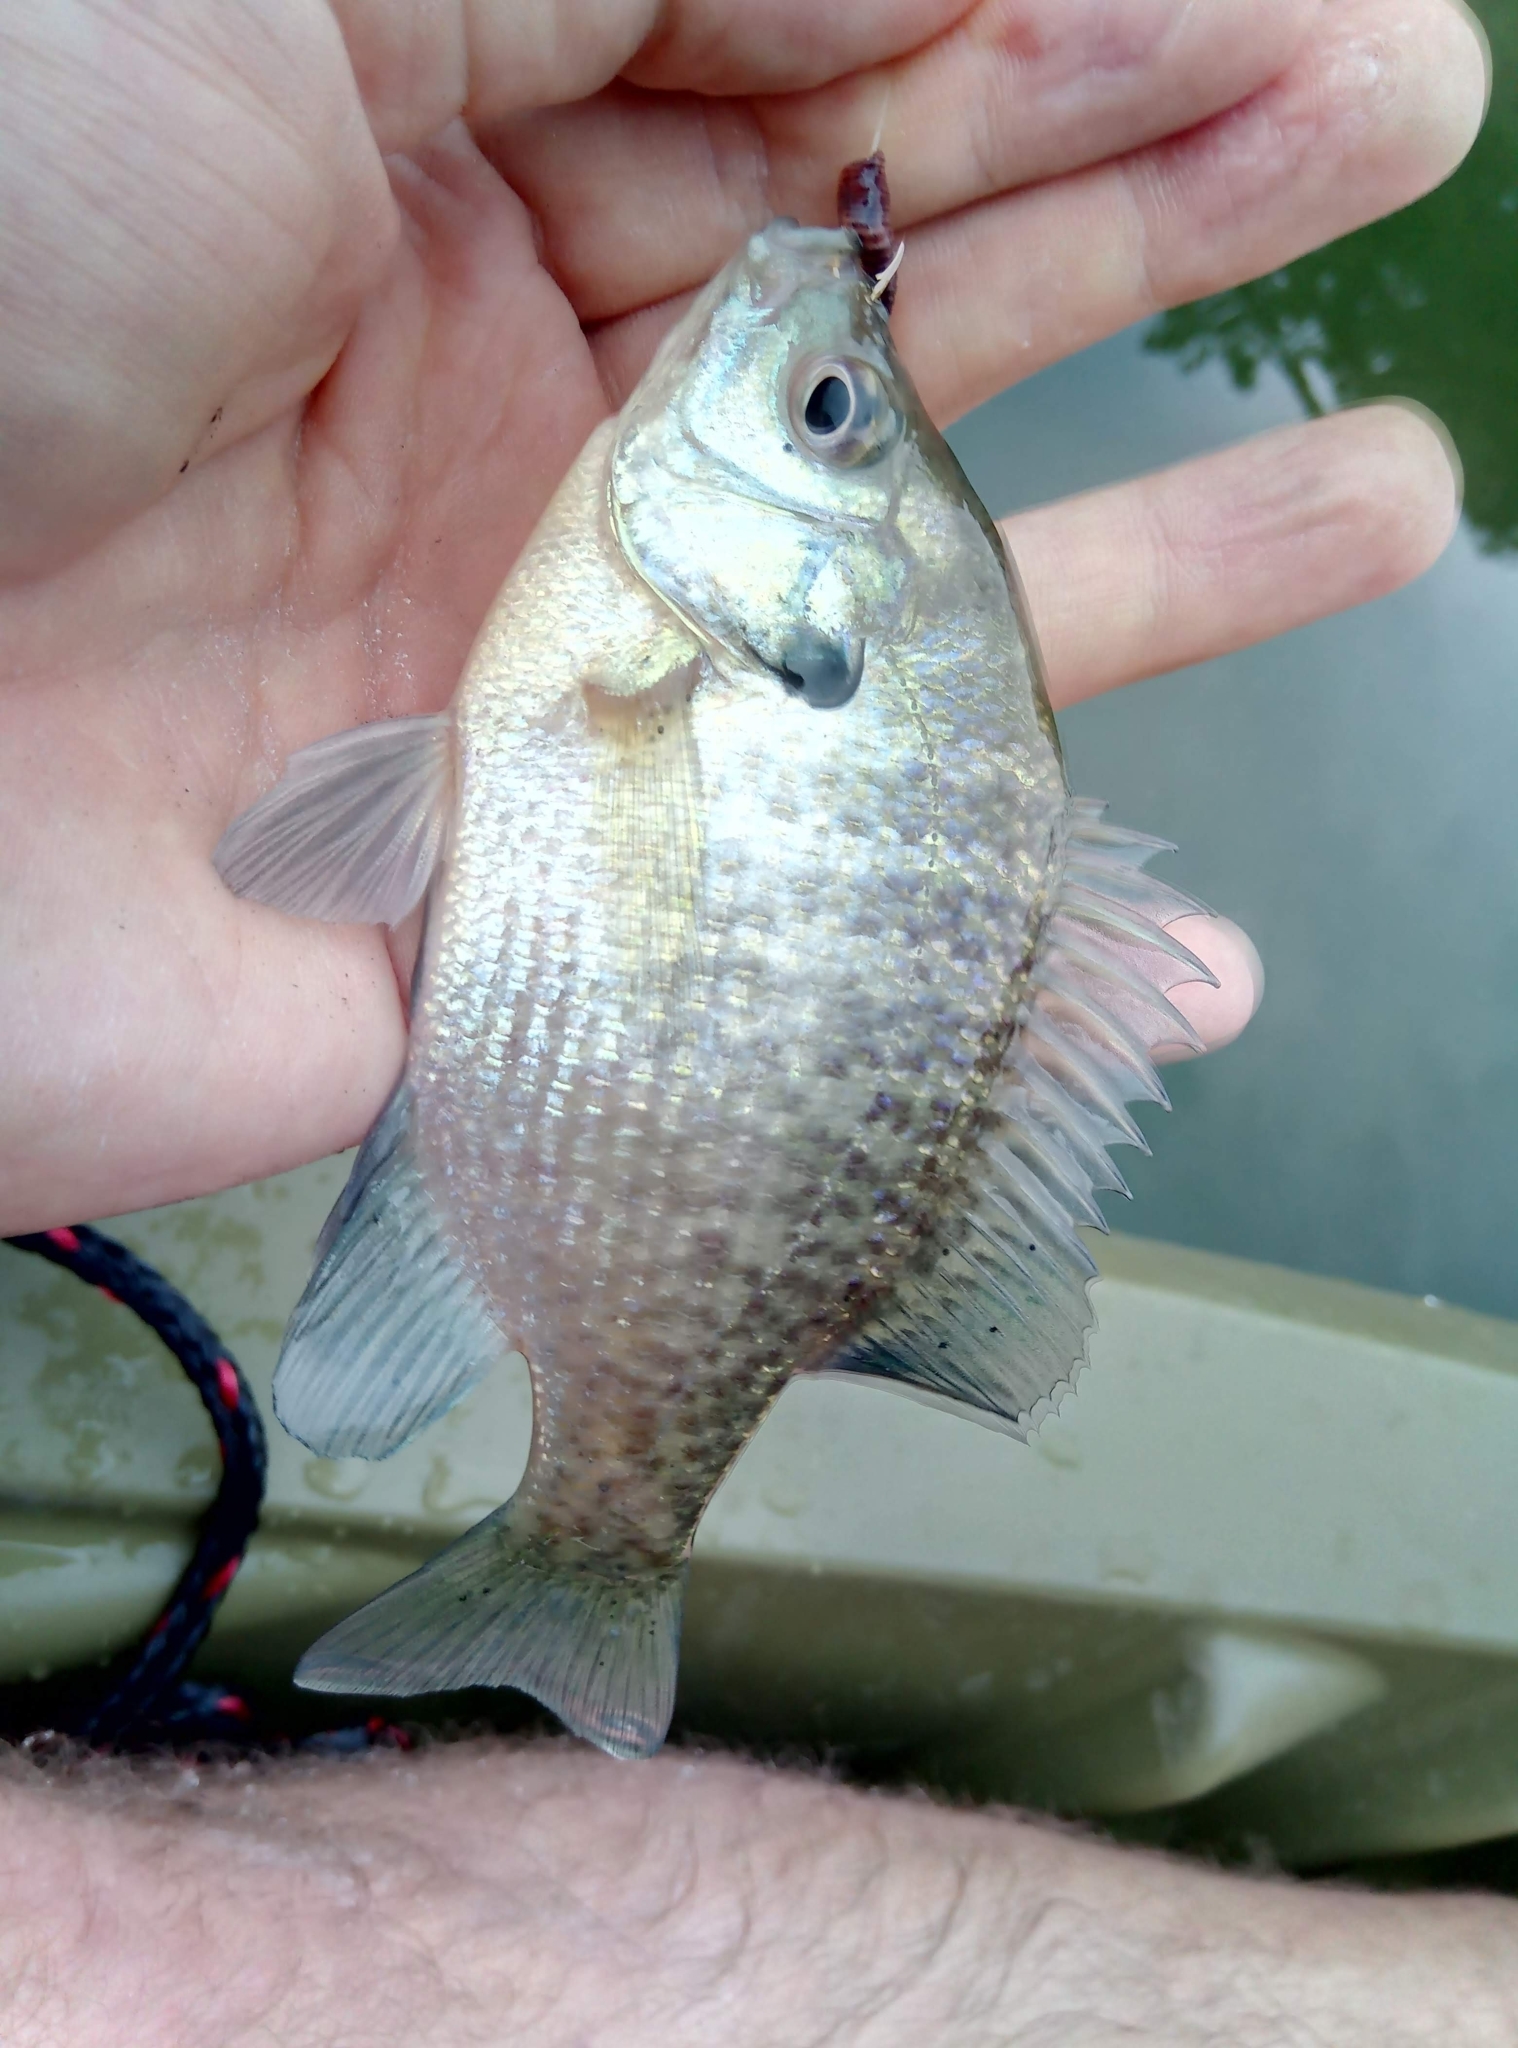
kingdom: Animalia
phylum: Chordata
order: Perciformes
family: Centrarchidae
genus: Lepomis
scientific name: Lepomis macrochirus
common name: Bluegill
